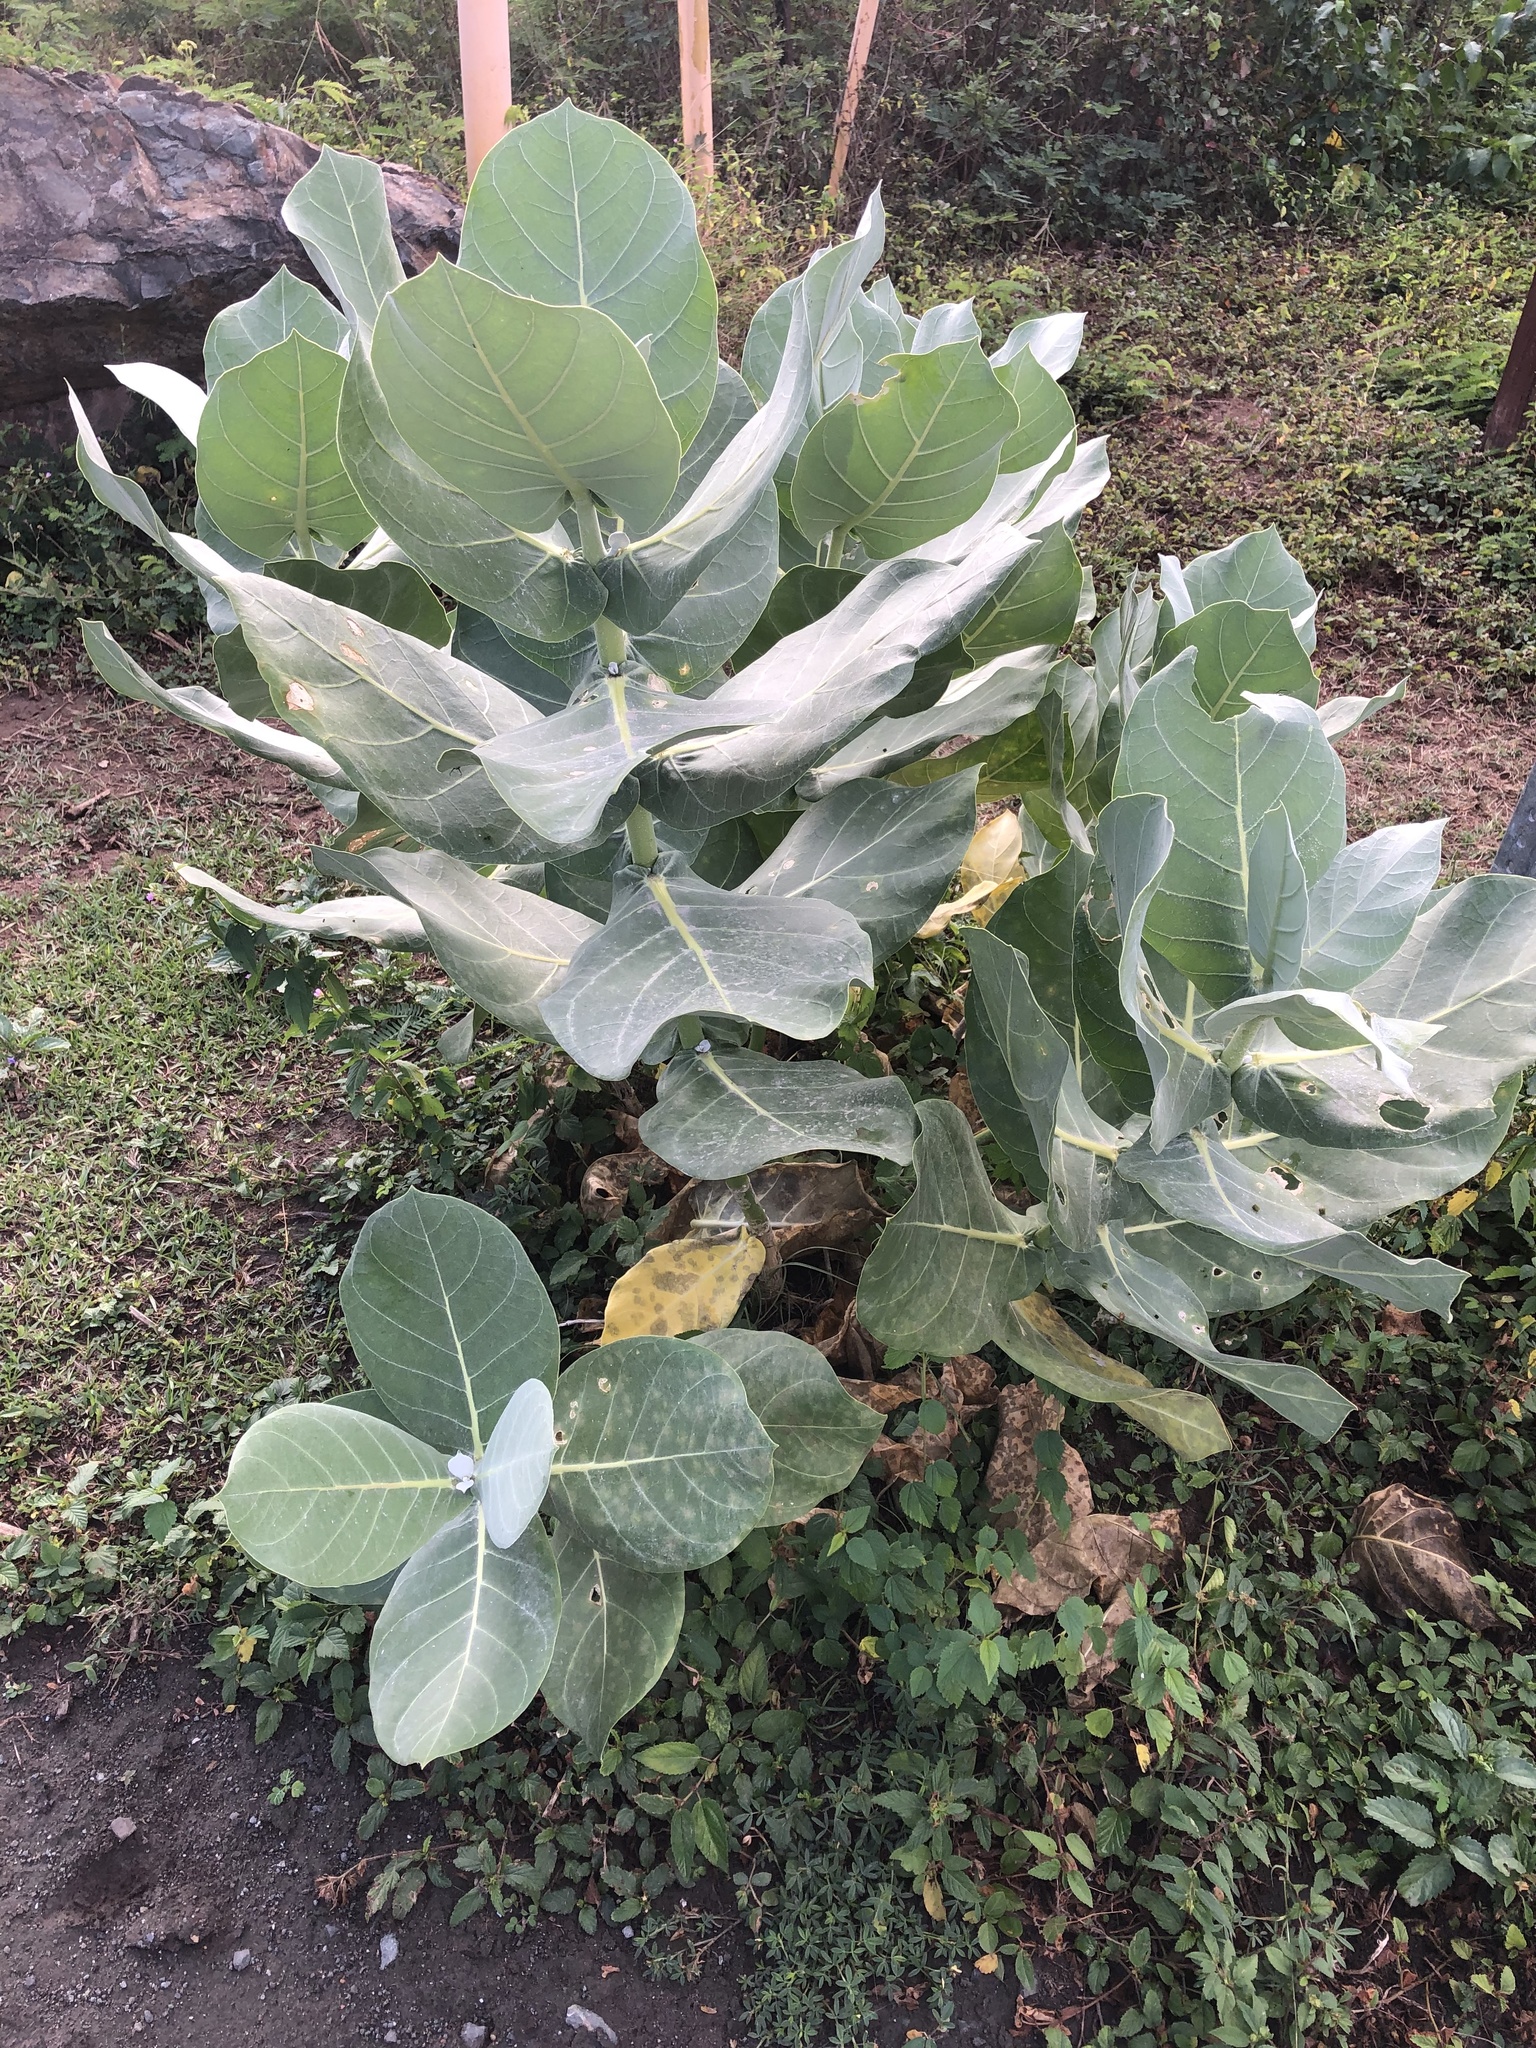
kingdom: Plantae
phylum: Tracheophyta
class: Magnoliopsida
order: Gentianales
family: Apocynaceae
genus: Calotropis
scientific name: Calotropis procera
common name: Roostertree
